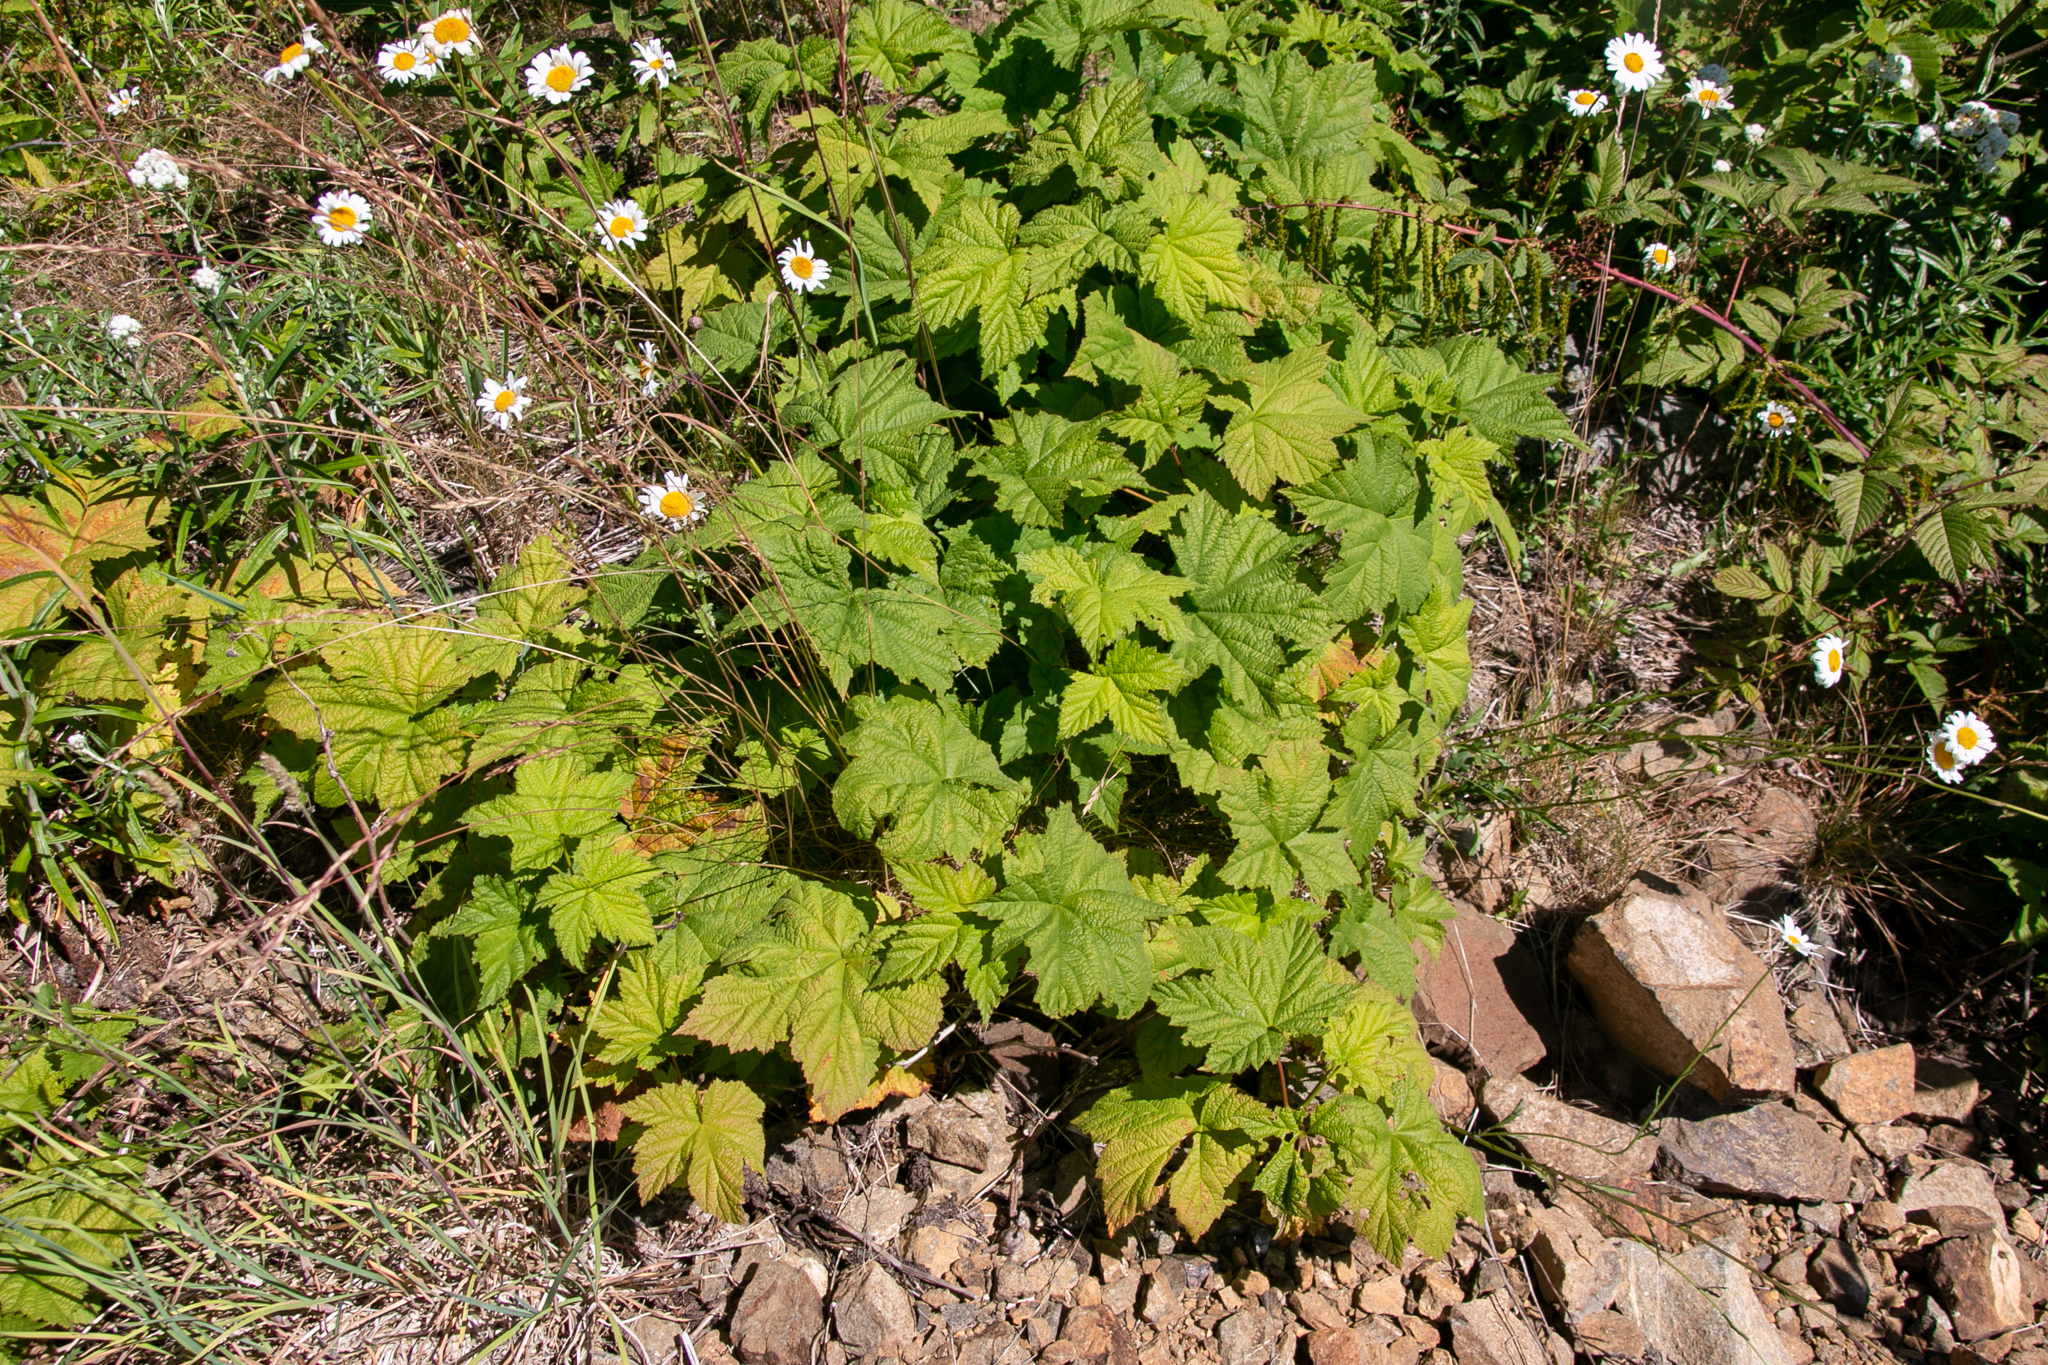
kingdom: Plantae
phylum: Tracheophyta
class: Magnoliopsida
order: Rosales
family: Rosaceae
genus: Rubus
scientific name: Rubus parviflorus
